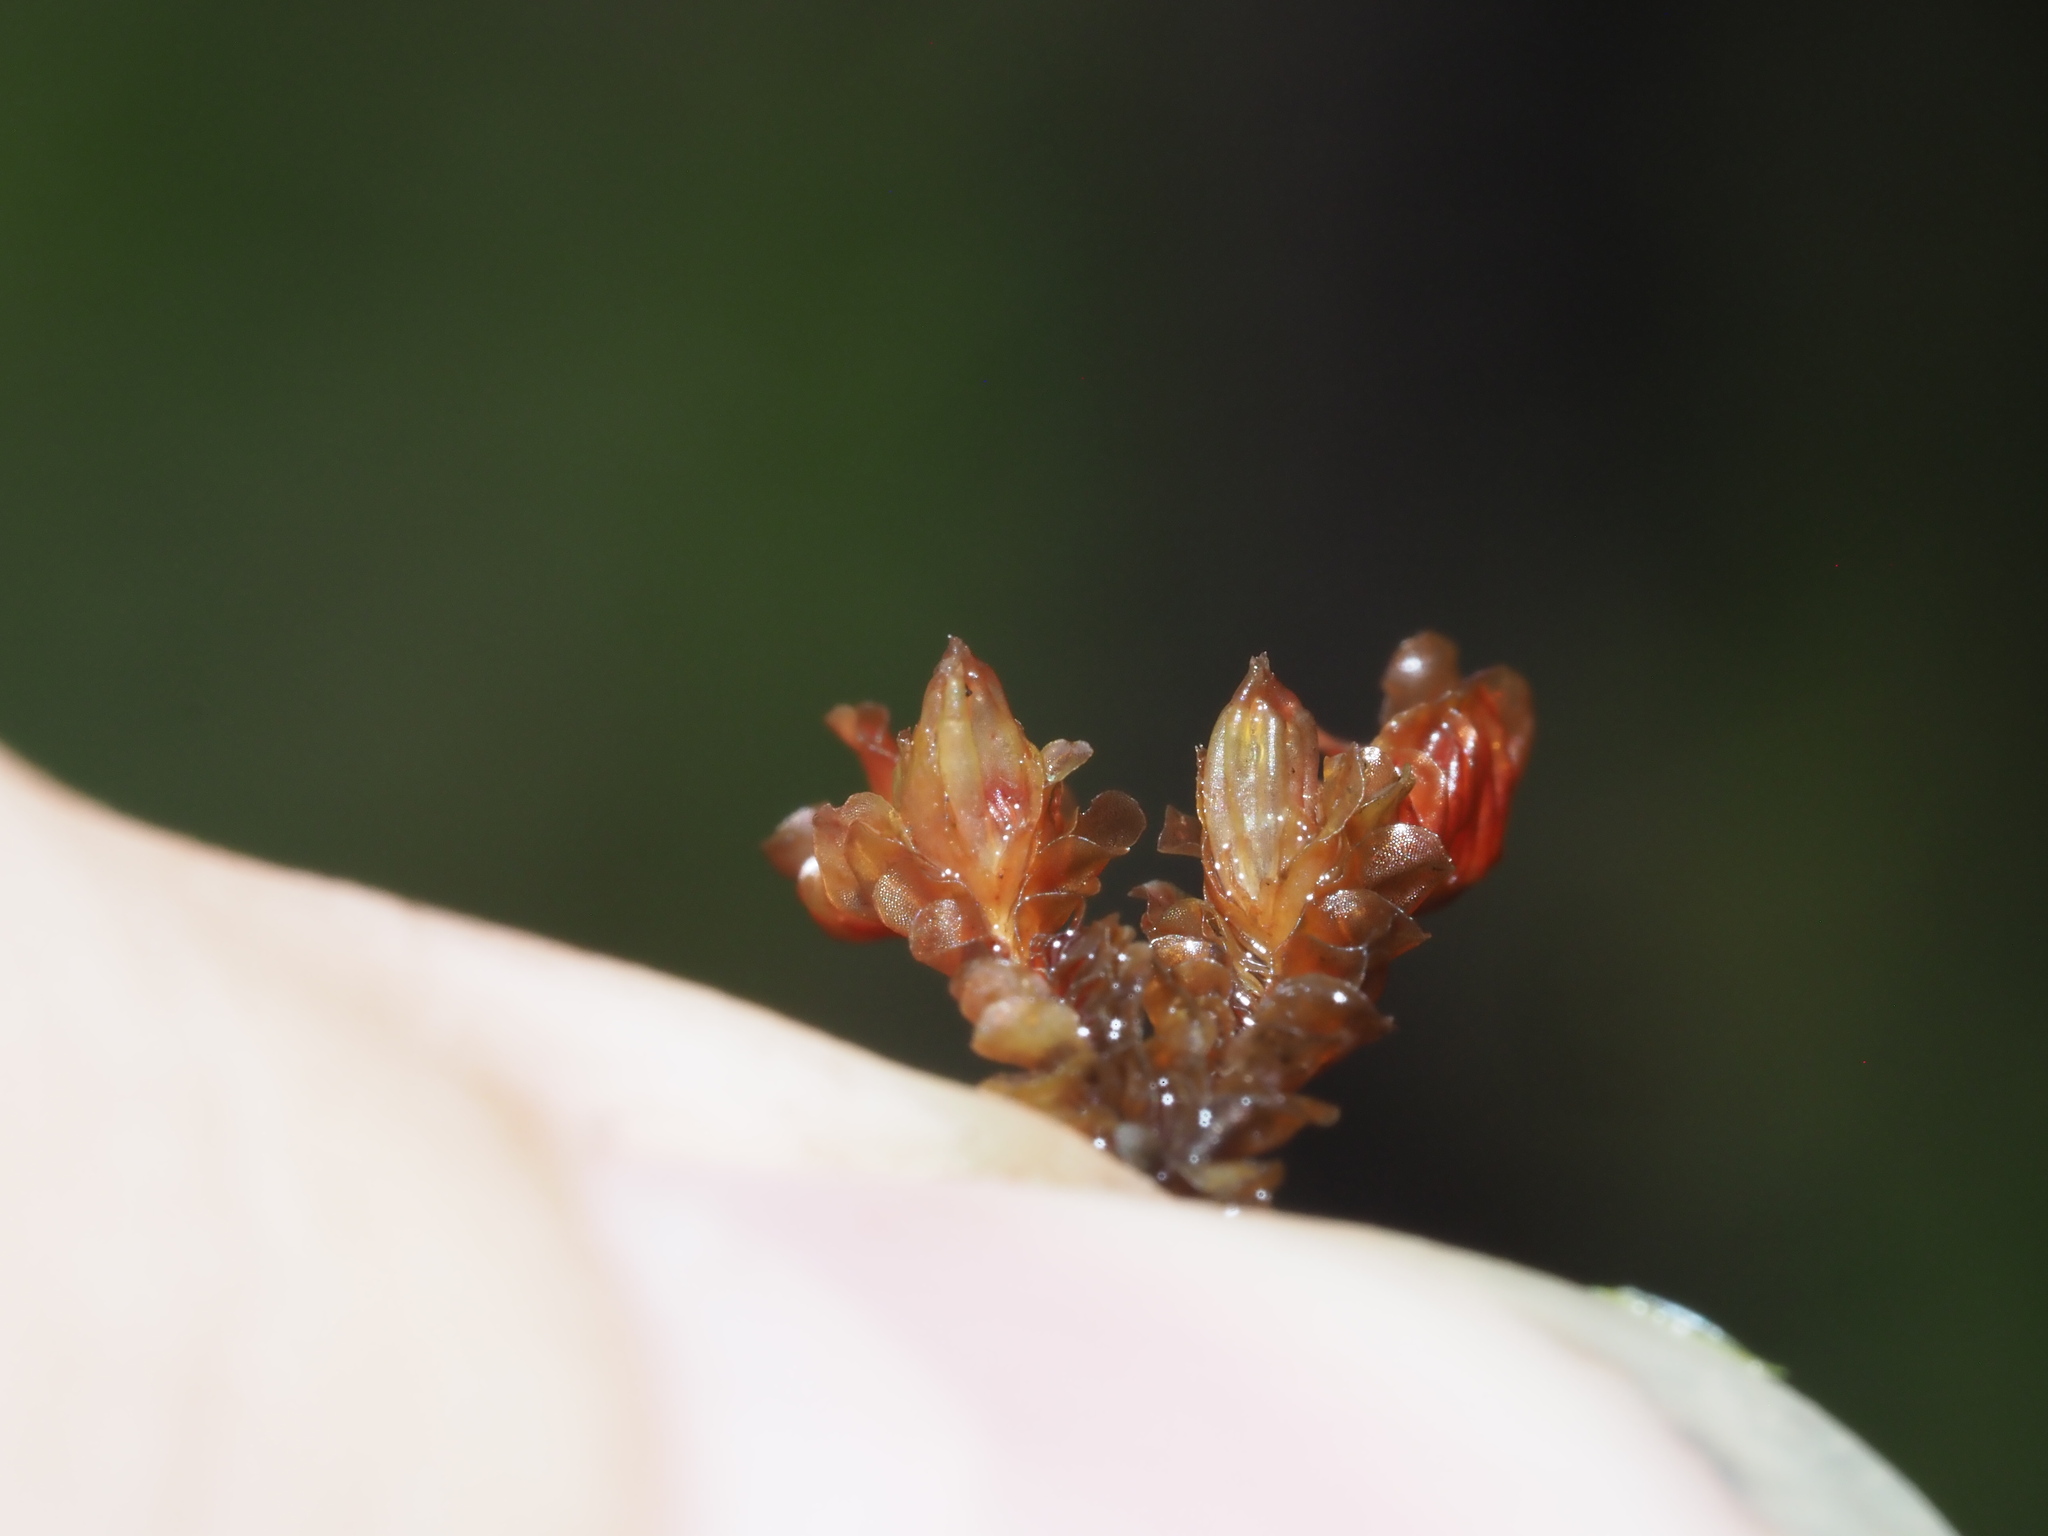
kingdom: Plantae
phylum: Marchantiophyta
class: Jungermanniopsida
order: Jungermanniales
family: Adelanthaceae
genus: Cuspidatula
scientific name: Cuspidatula robusta
